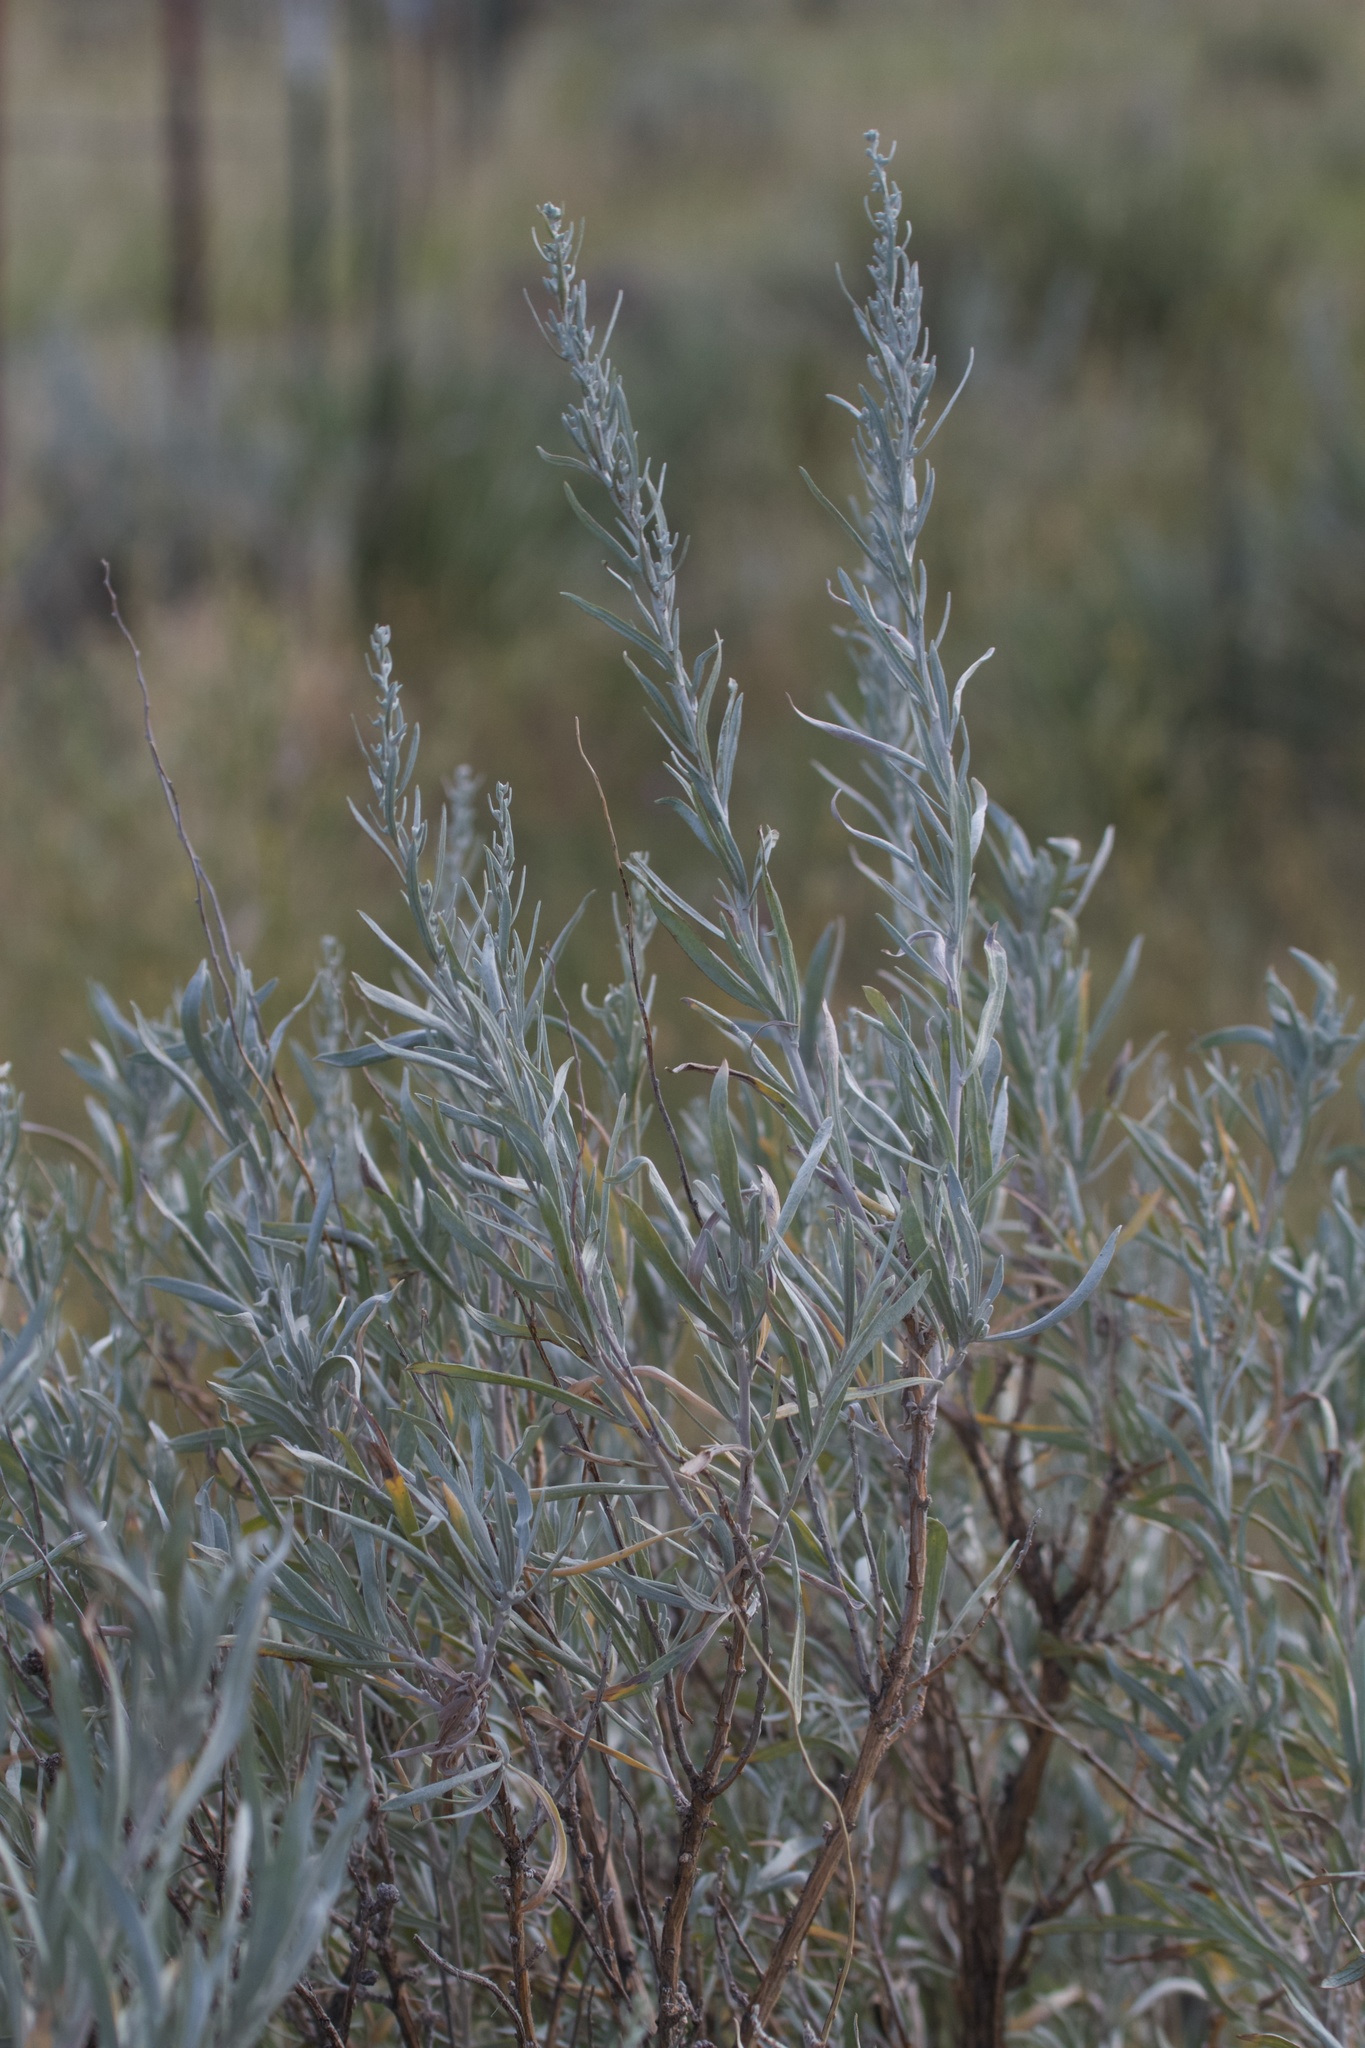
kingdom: Plantae
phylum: Tracheophyta
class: Magnoliopsida
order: Asterales
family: Asteraceae
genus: Artemisia
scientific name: Artemisia cana
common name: Silver sagebrush
